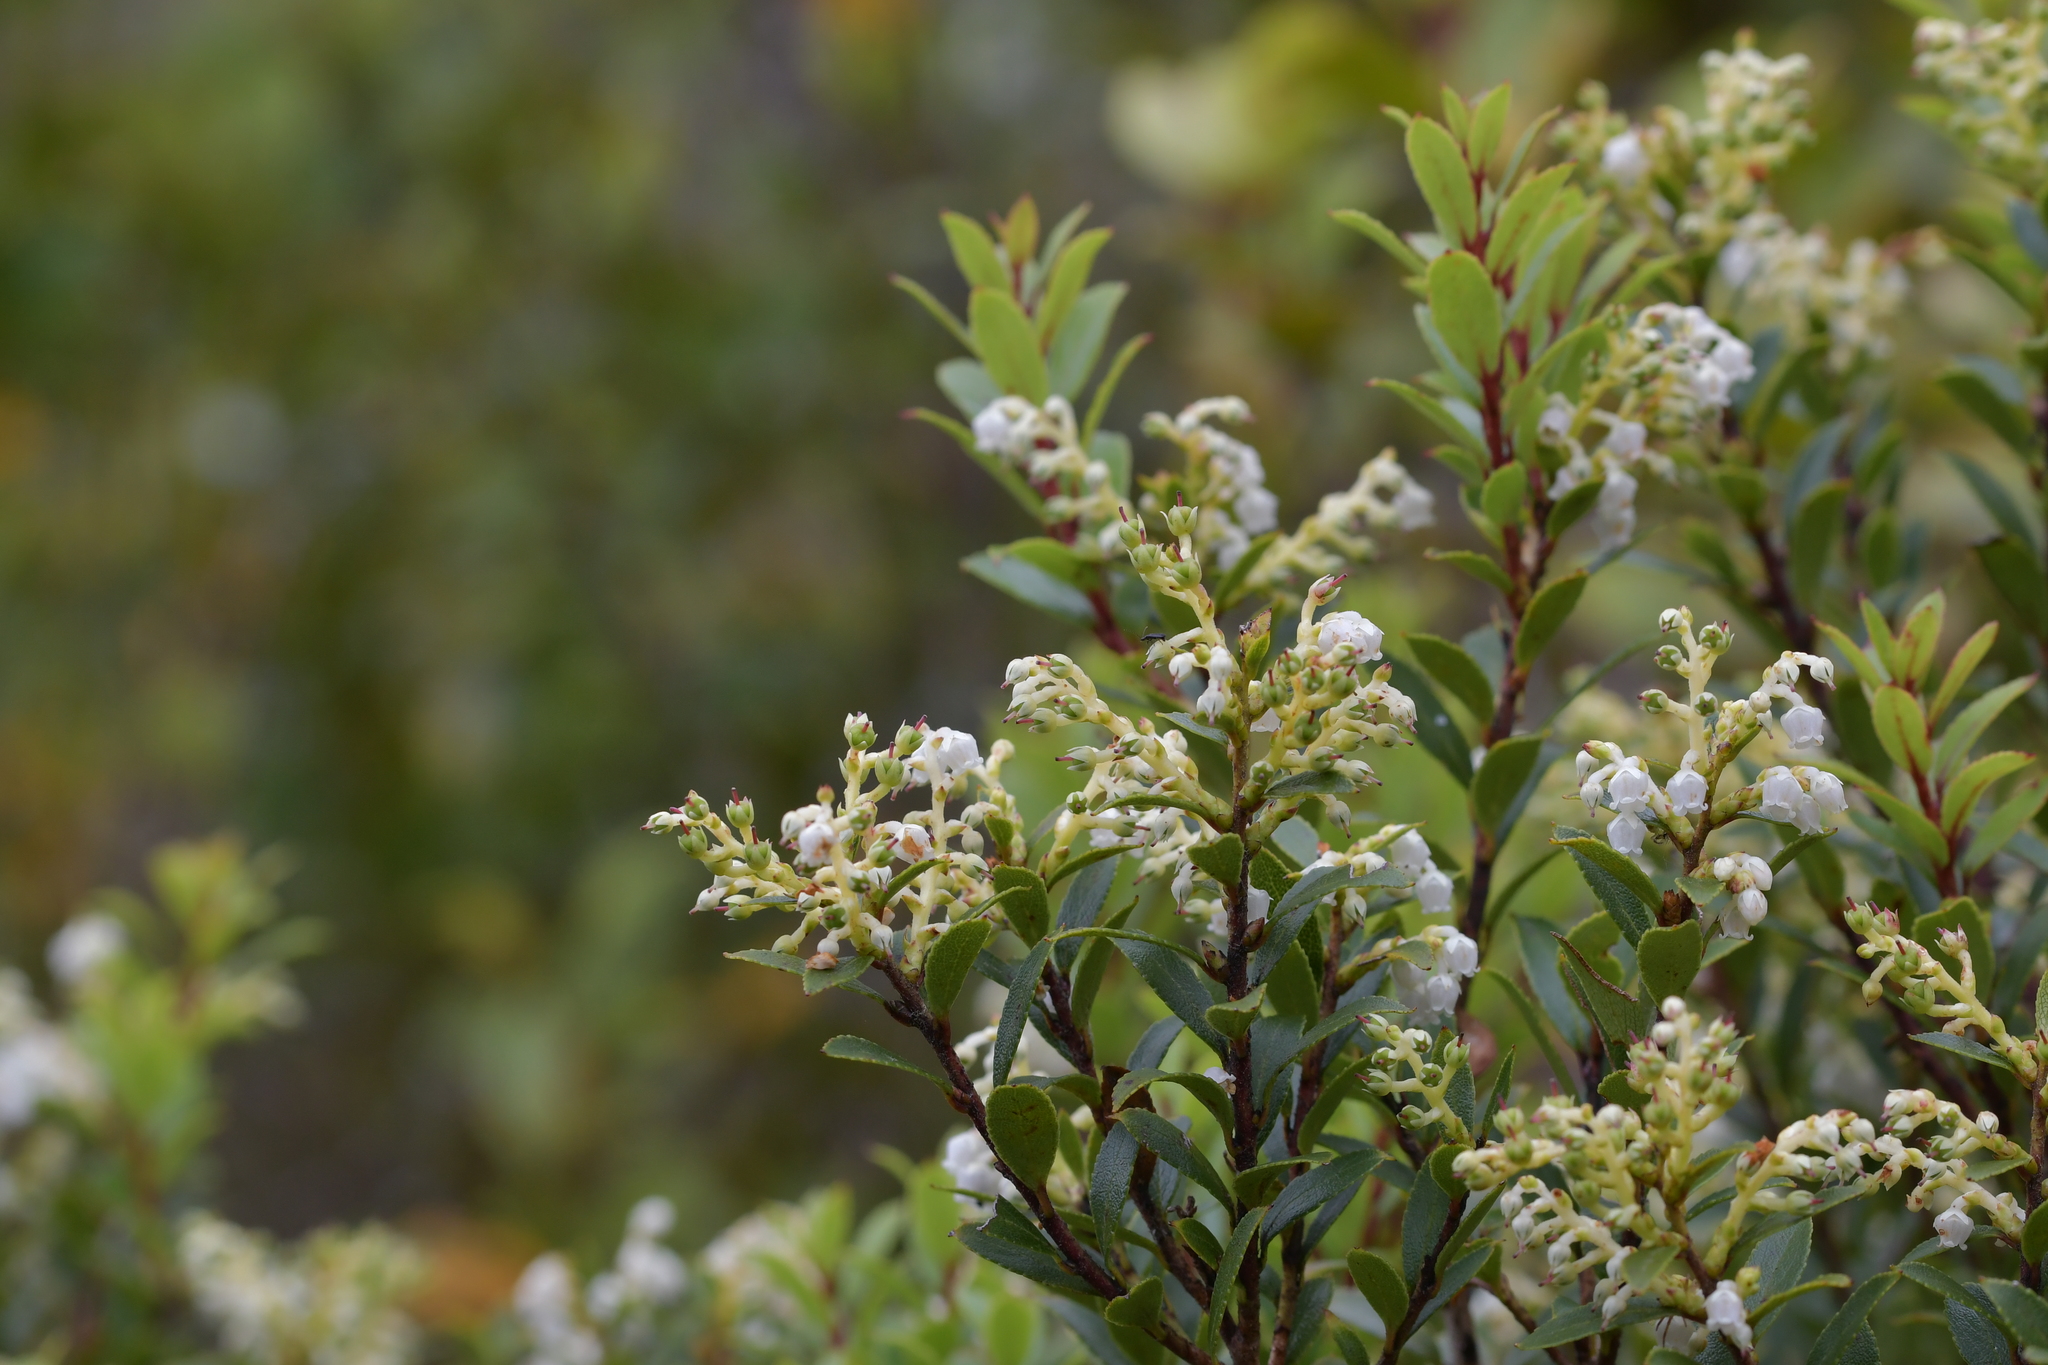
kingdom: Plantae
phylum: Tracheophyta
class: Magnoliopsida
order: Ericales
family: Ericaceae
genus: Gaultheria
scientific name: Gaultheria rupestris
